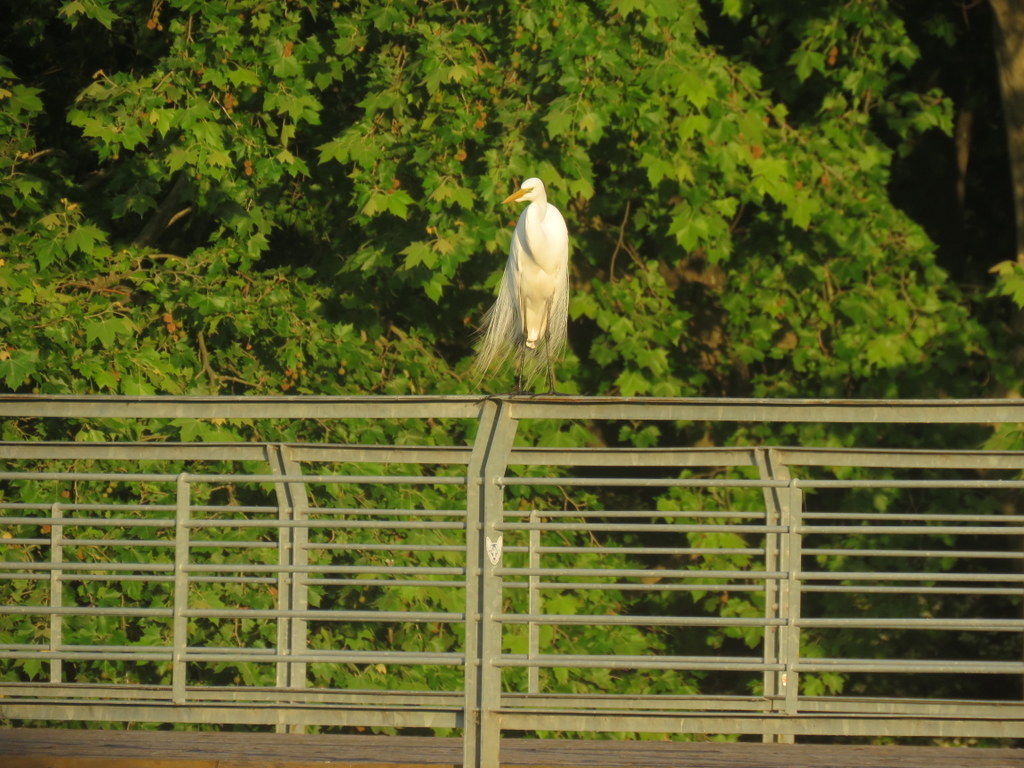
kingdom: Animalia
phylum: Chordata
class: Aves
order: Pelecaniformes
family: Ardeidae
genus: Ardea
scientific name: Ardea alba
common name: Great egret
